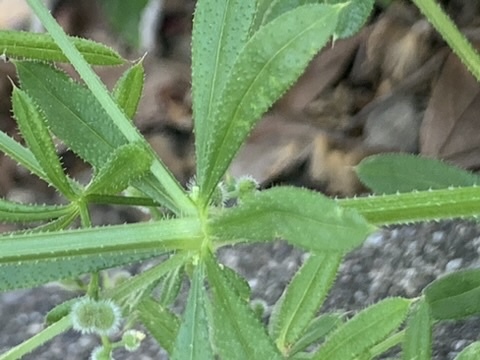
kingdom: Plantae
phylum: Tracheophyta
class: Magnoliopsida
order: Gentianales
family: Rubiaceae
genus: Galium
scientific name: Galium aparine
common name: Cleavers
